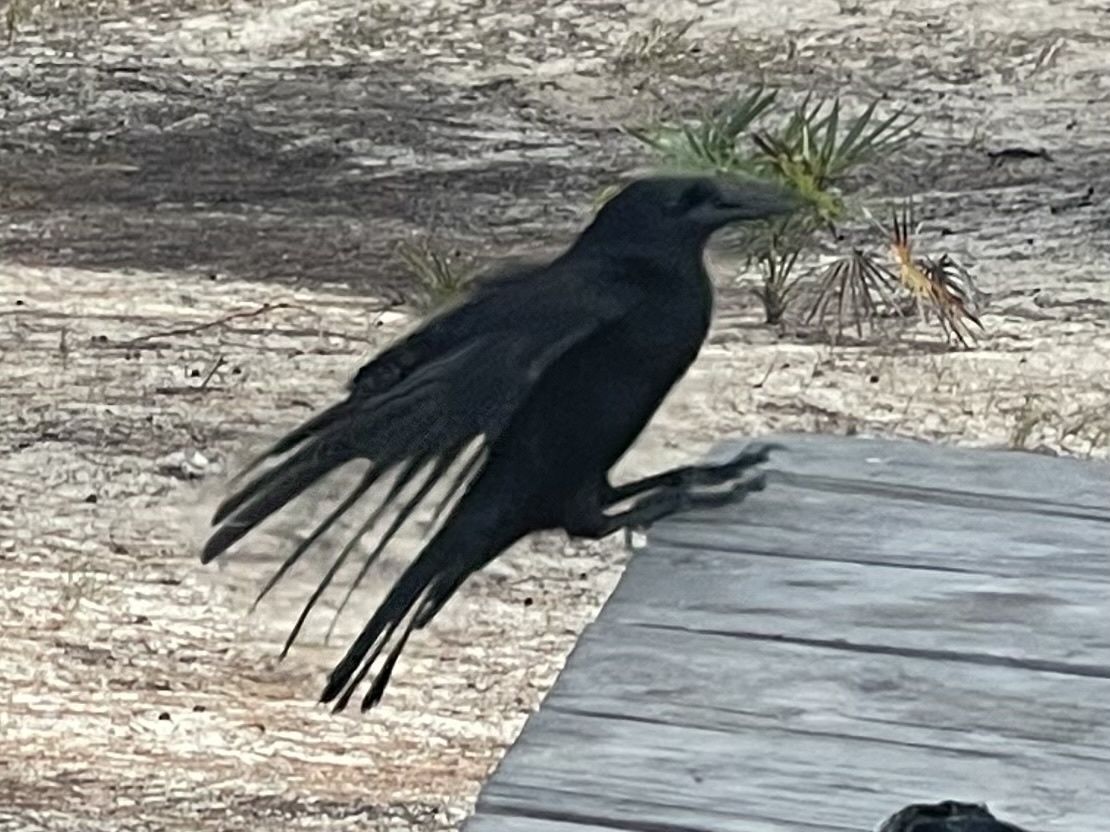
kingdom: Animalia
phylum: Chordata
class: Aves
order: Passeriformes
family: Corvidae
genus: Corvus
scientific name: Corvus nasicus
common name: Cuban crow
